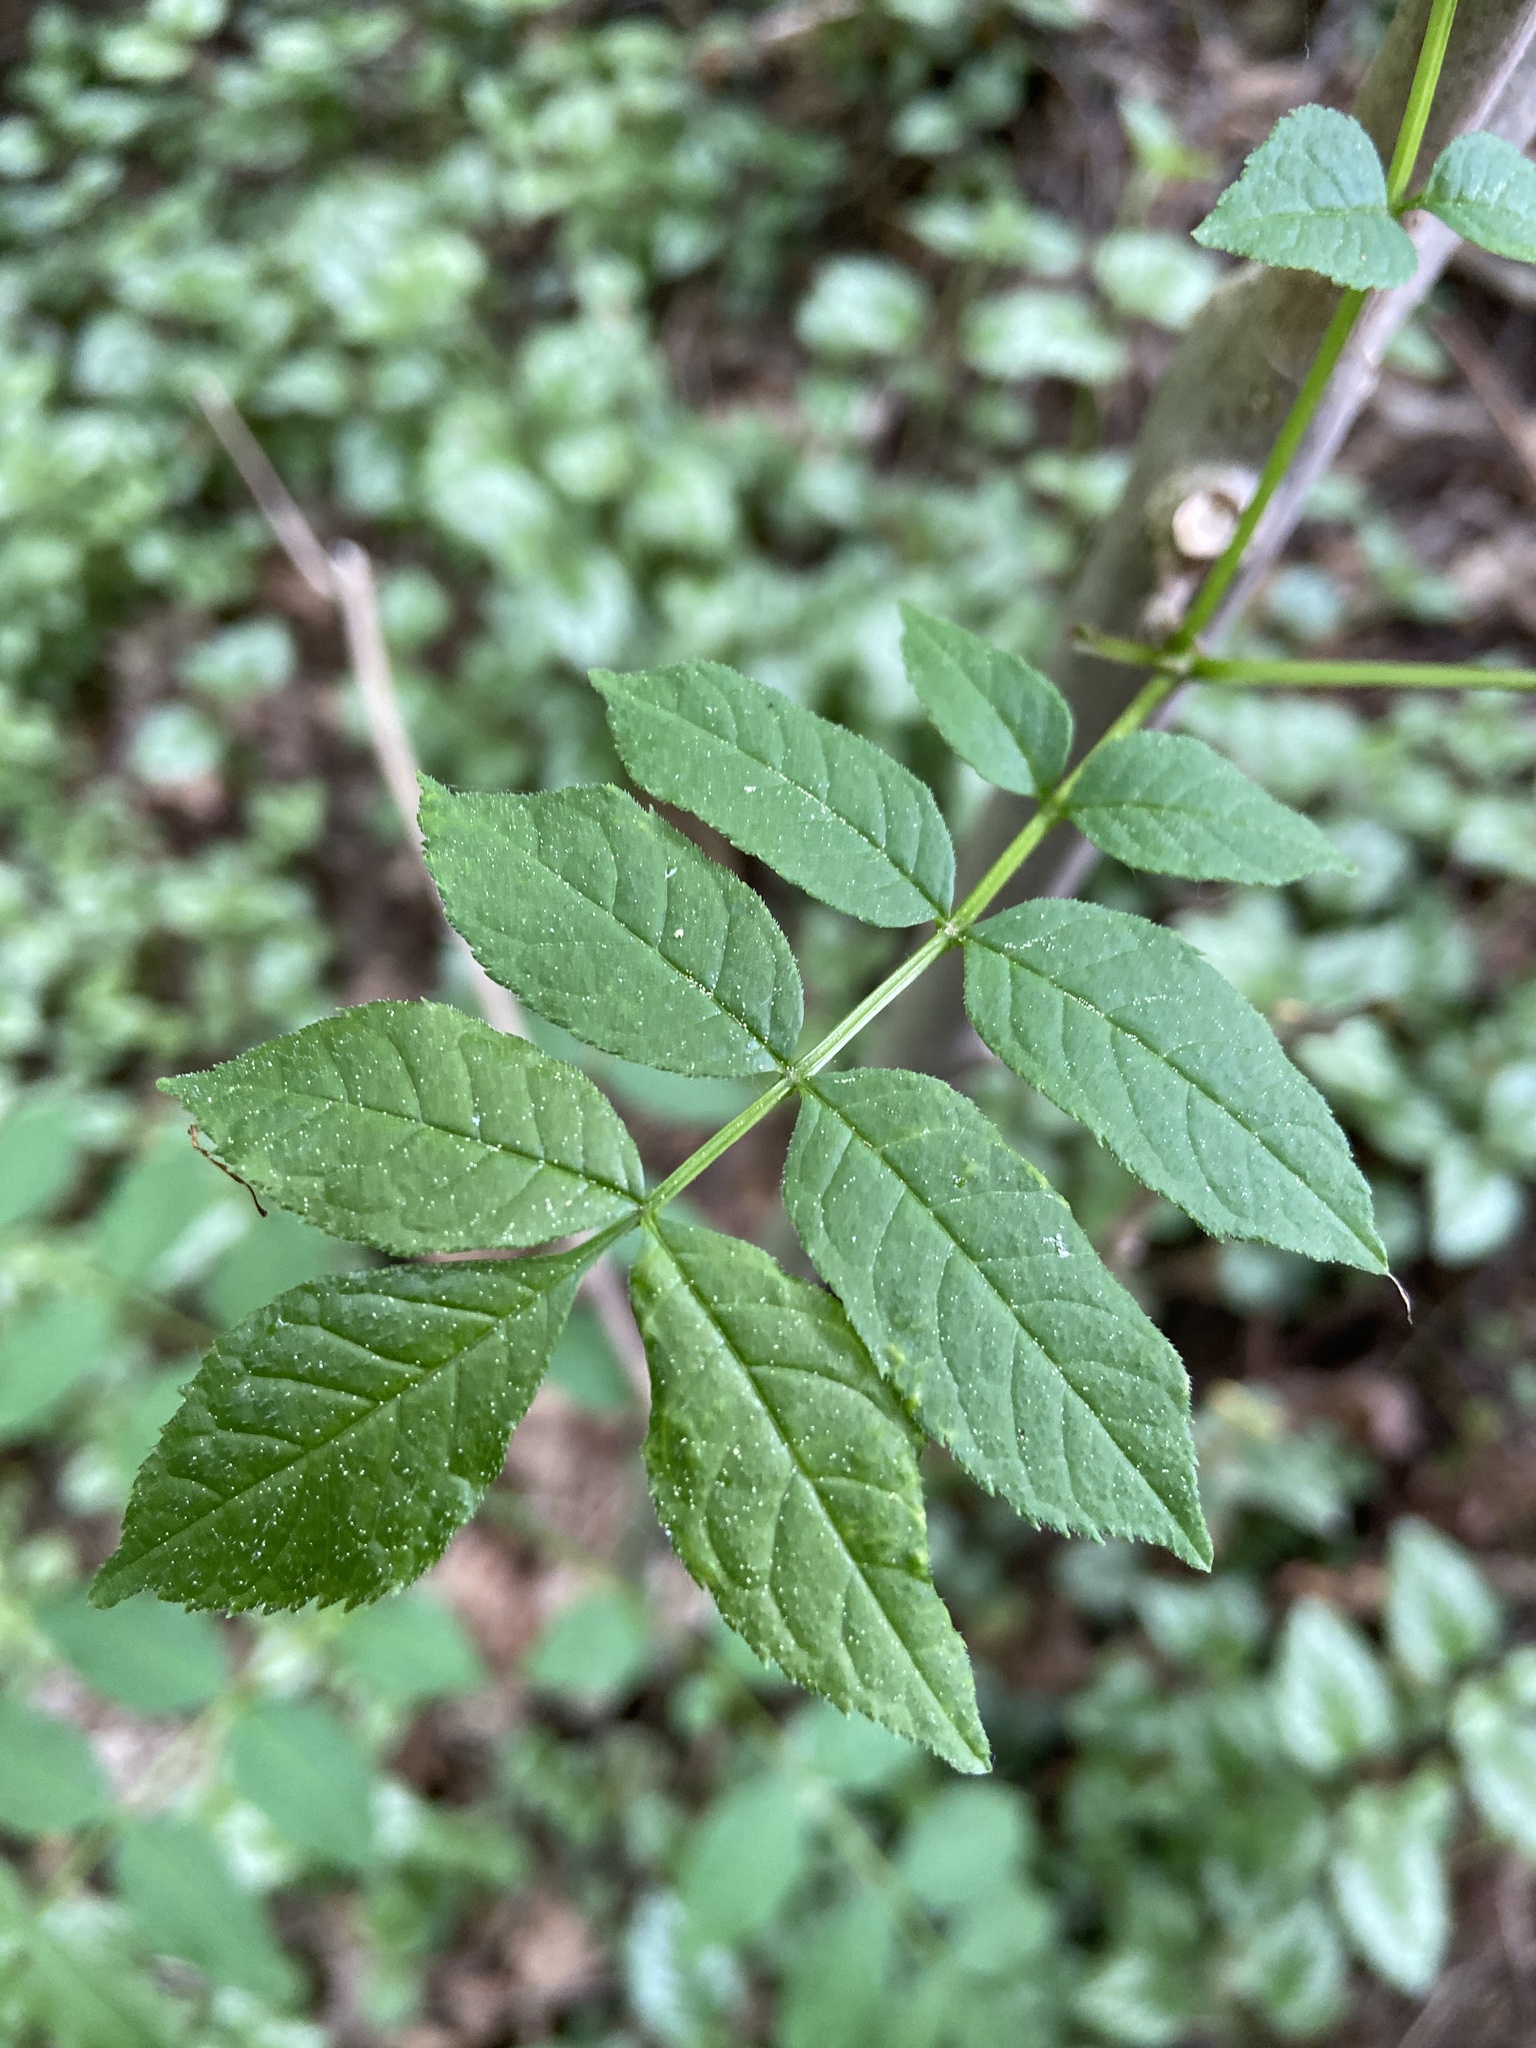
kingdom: Plantae
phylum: Tracheophyta
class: Magnoliopsida
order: Lamiales
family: Oleaceae
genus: Fraxinus
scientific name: Fraxinus excelsior
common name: European ash
